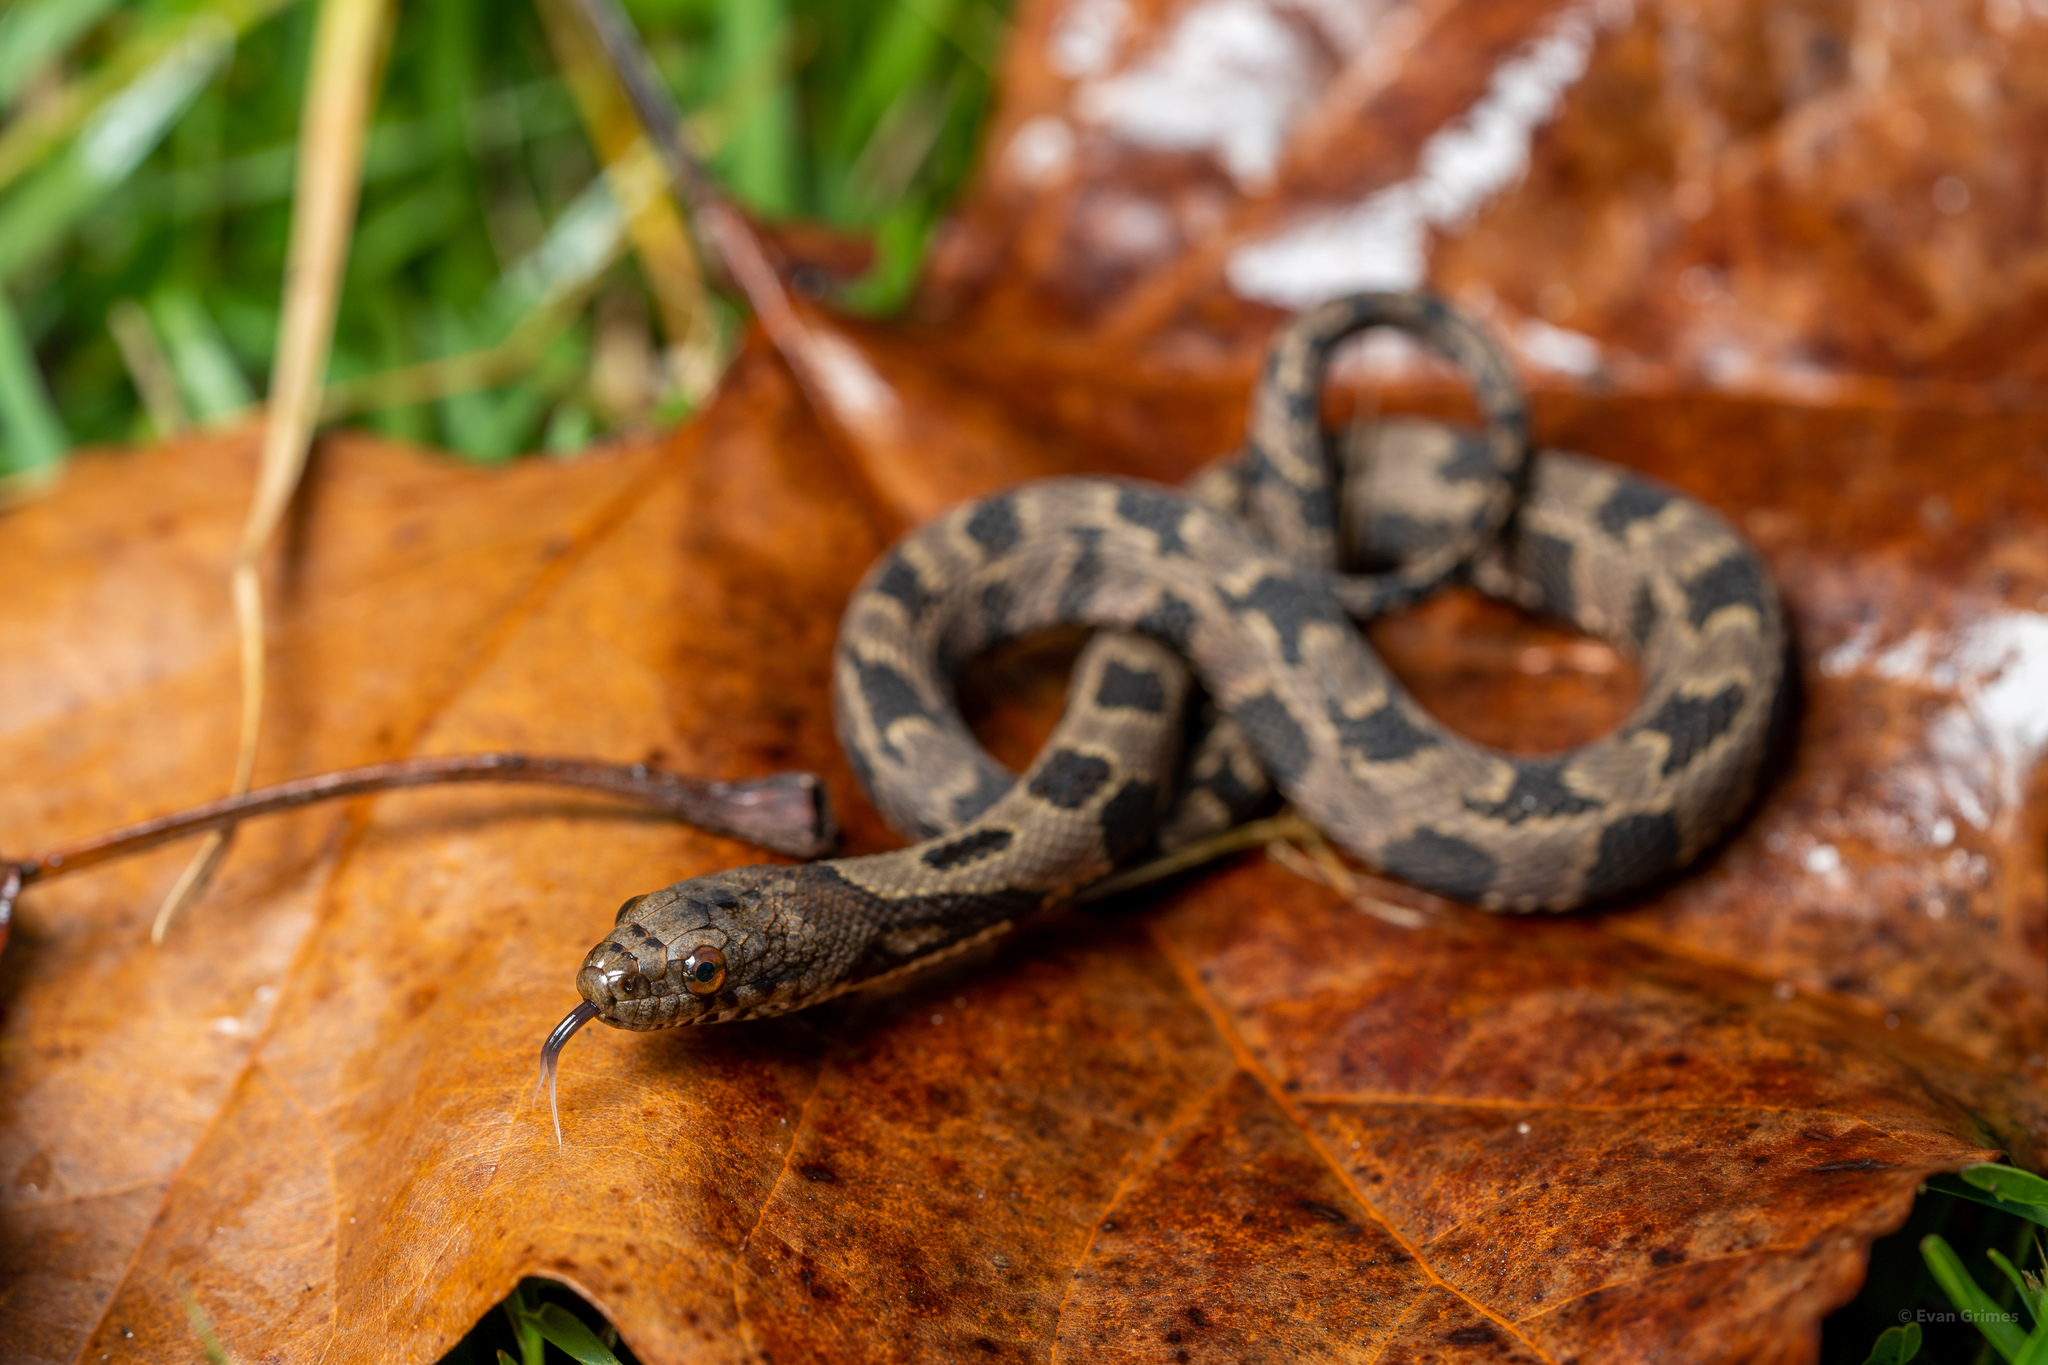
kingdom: Animalia
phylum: Chordata
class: Squamata
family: Colubridae
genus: Nerodia
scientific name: Nerodia taxispilota
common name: Brown water snake
